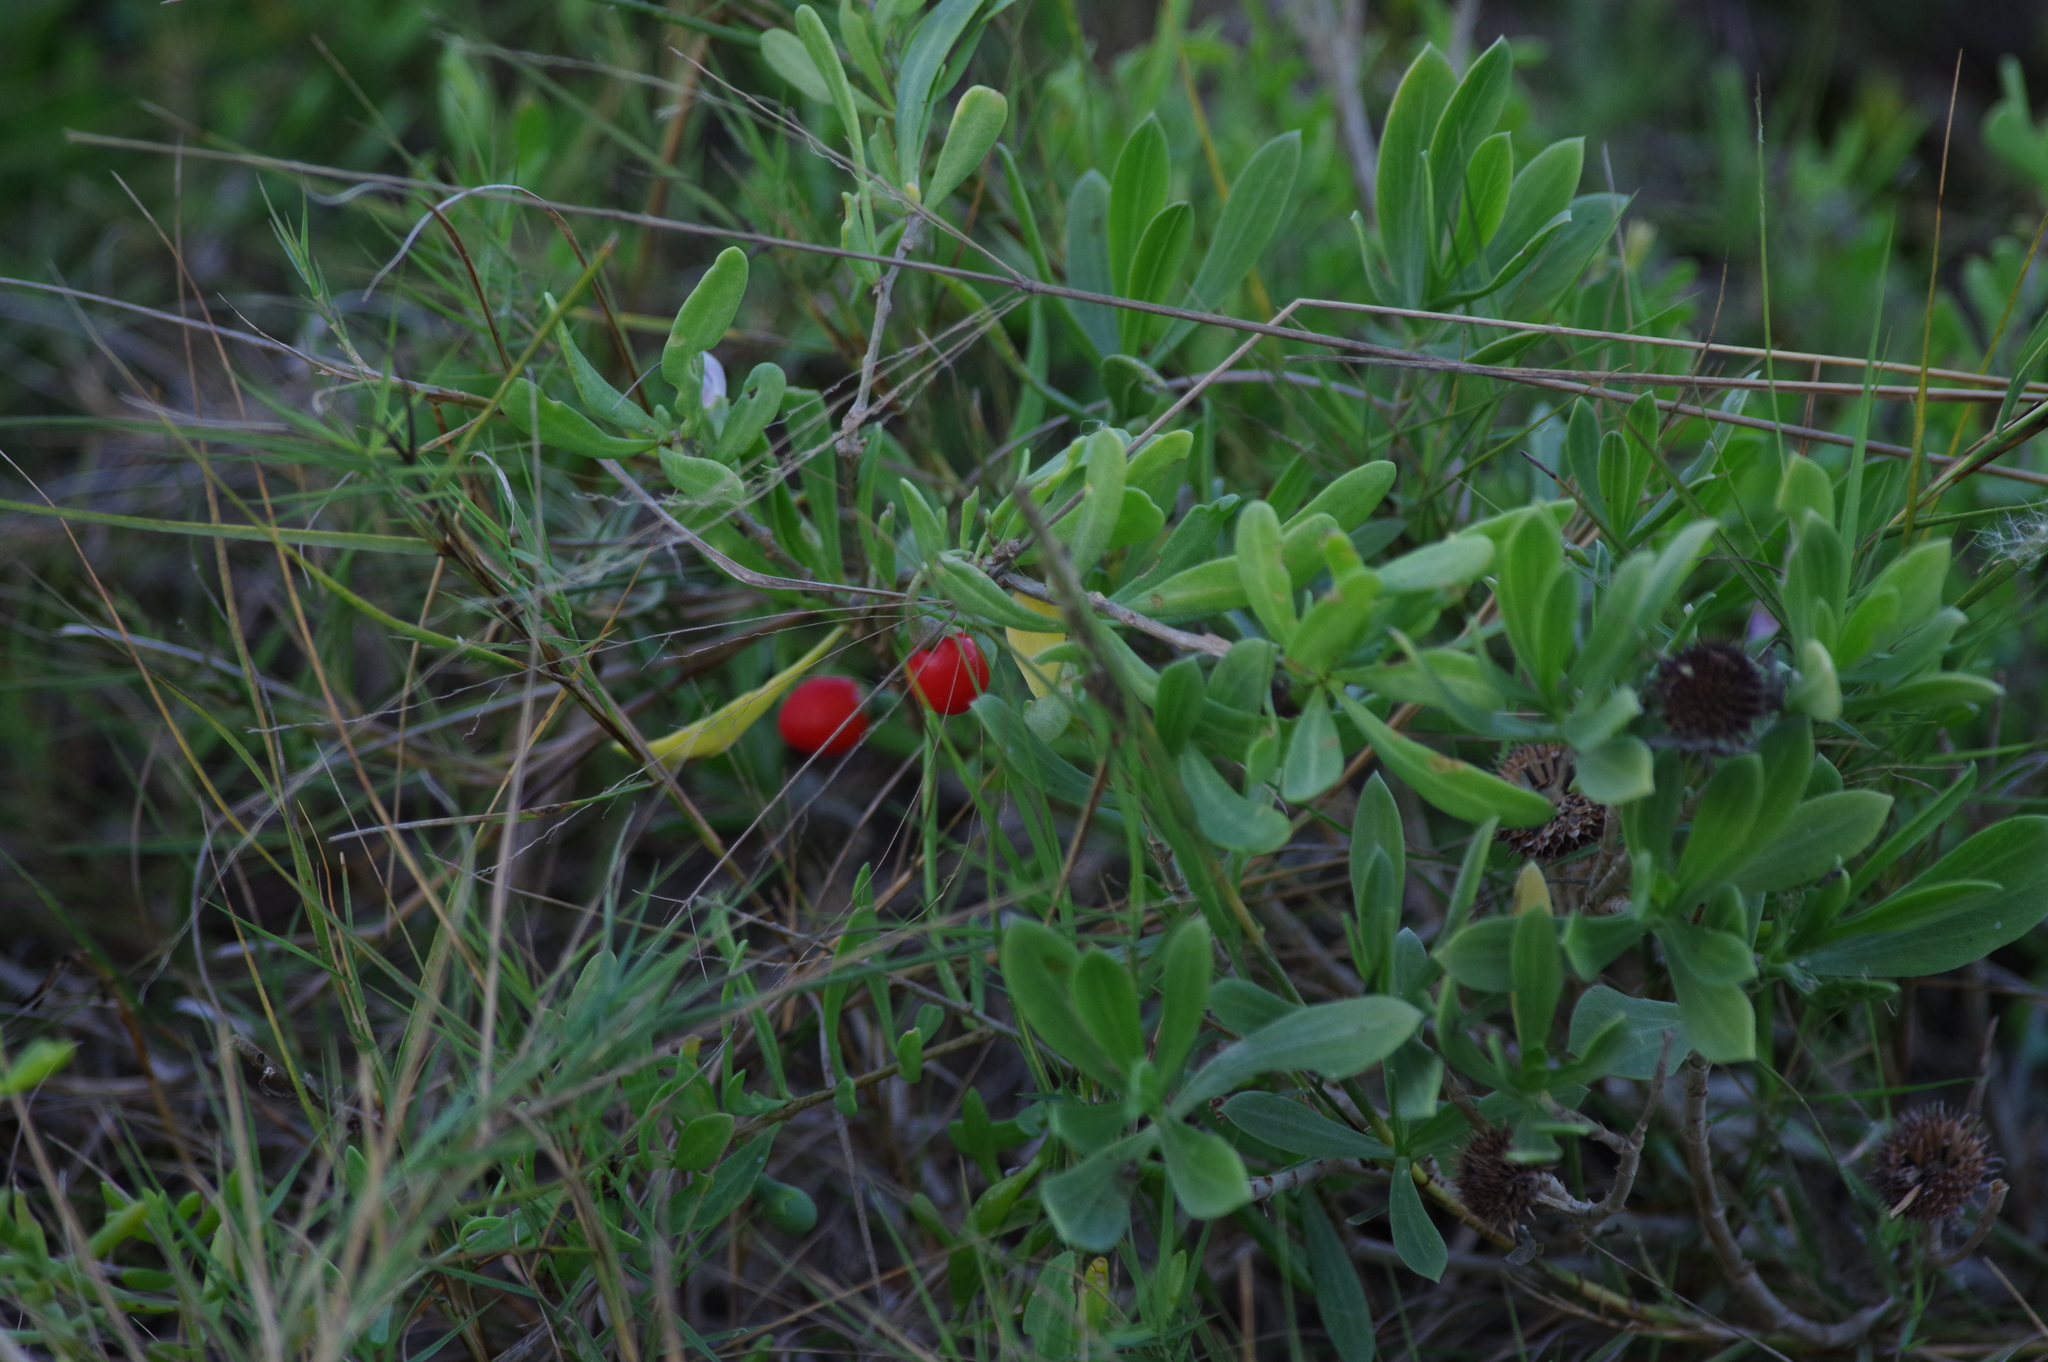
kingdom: Plantae
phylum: Tracheophyta
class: Magnoliopsida
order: Solanales
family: Solanaceae
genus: Lycium
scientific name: Lycium carolinianum
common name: Christmasberry
